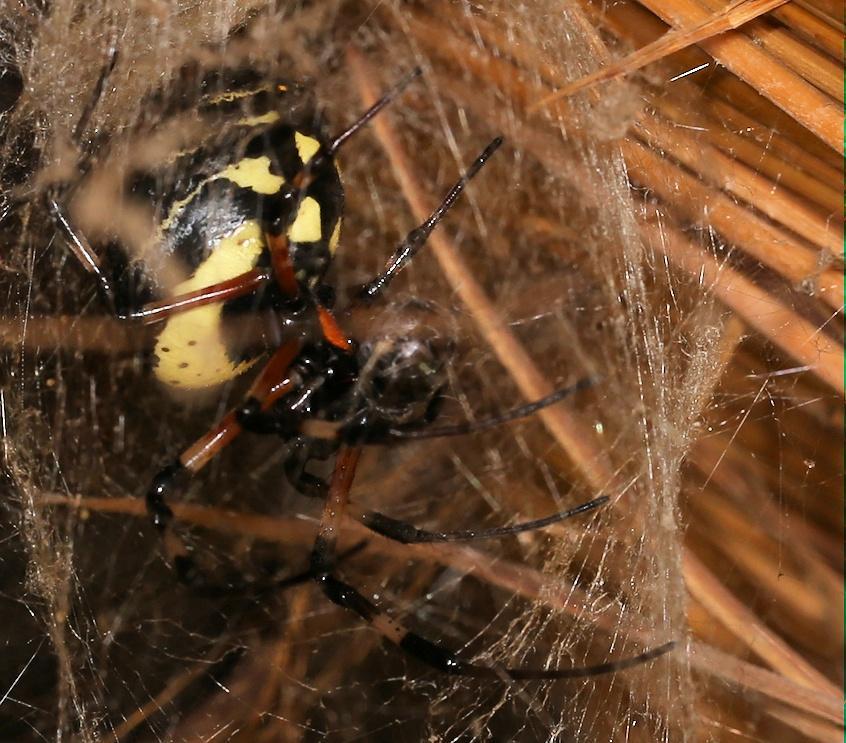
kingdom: Animalia
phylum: Arthropoda
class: Arachnida
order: Araneae
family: Araneidae
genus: Nephilingis
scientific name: Nephilingis cruentata
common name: African hermit spider
